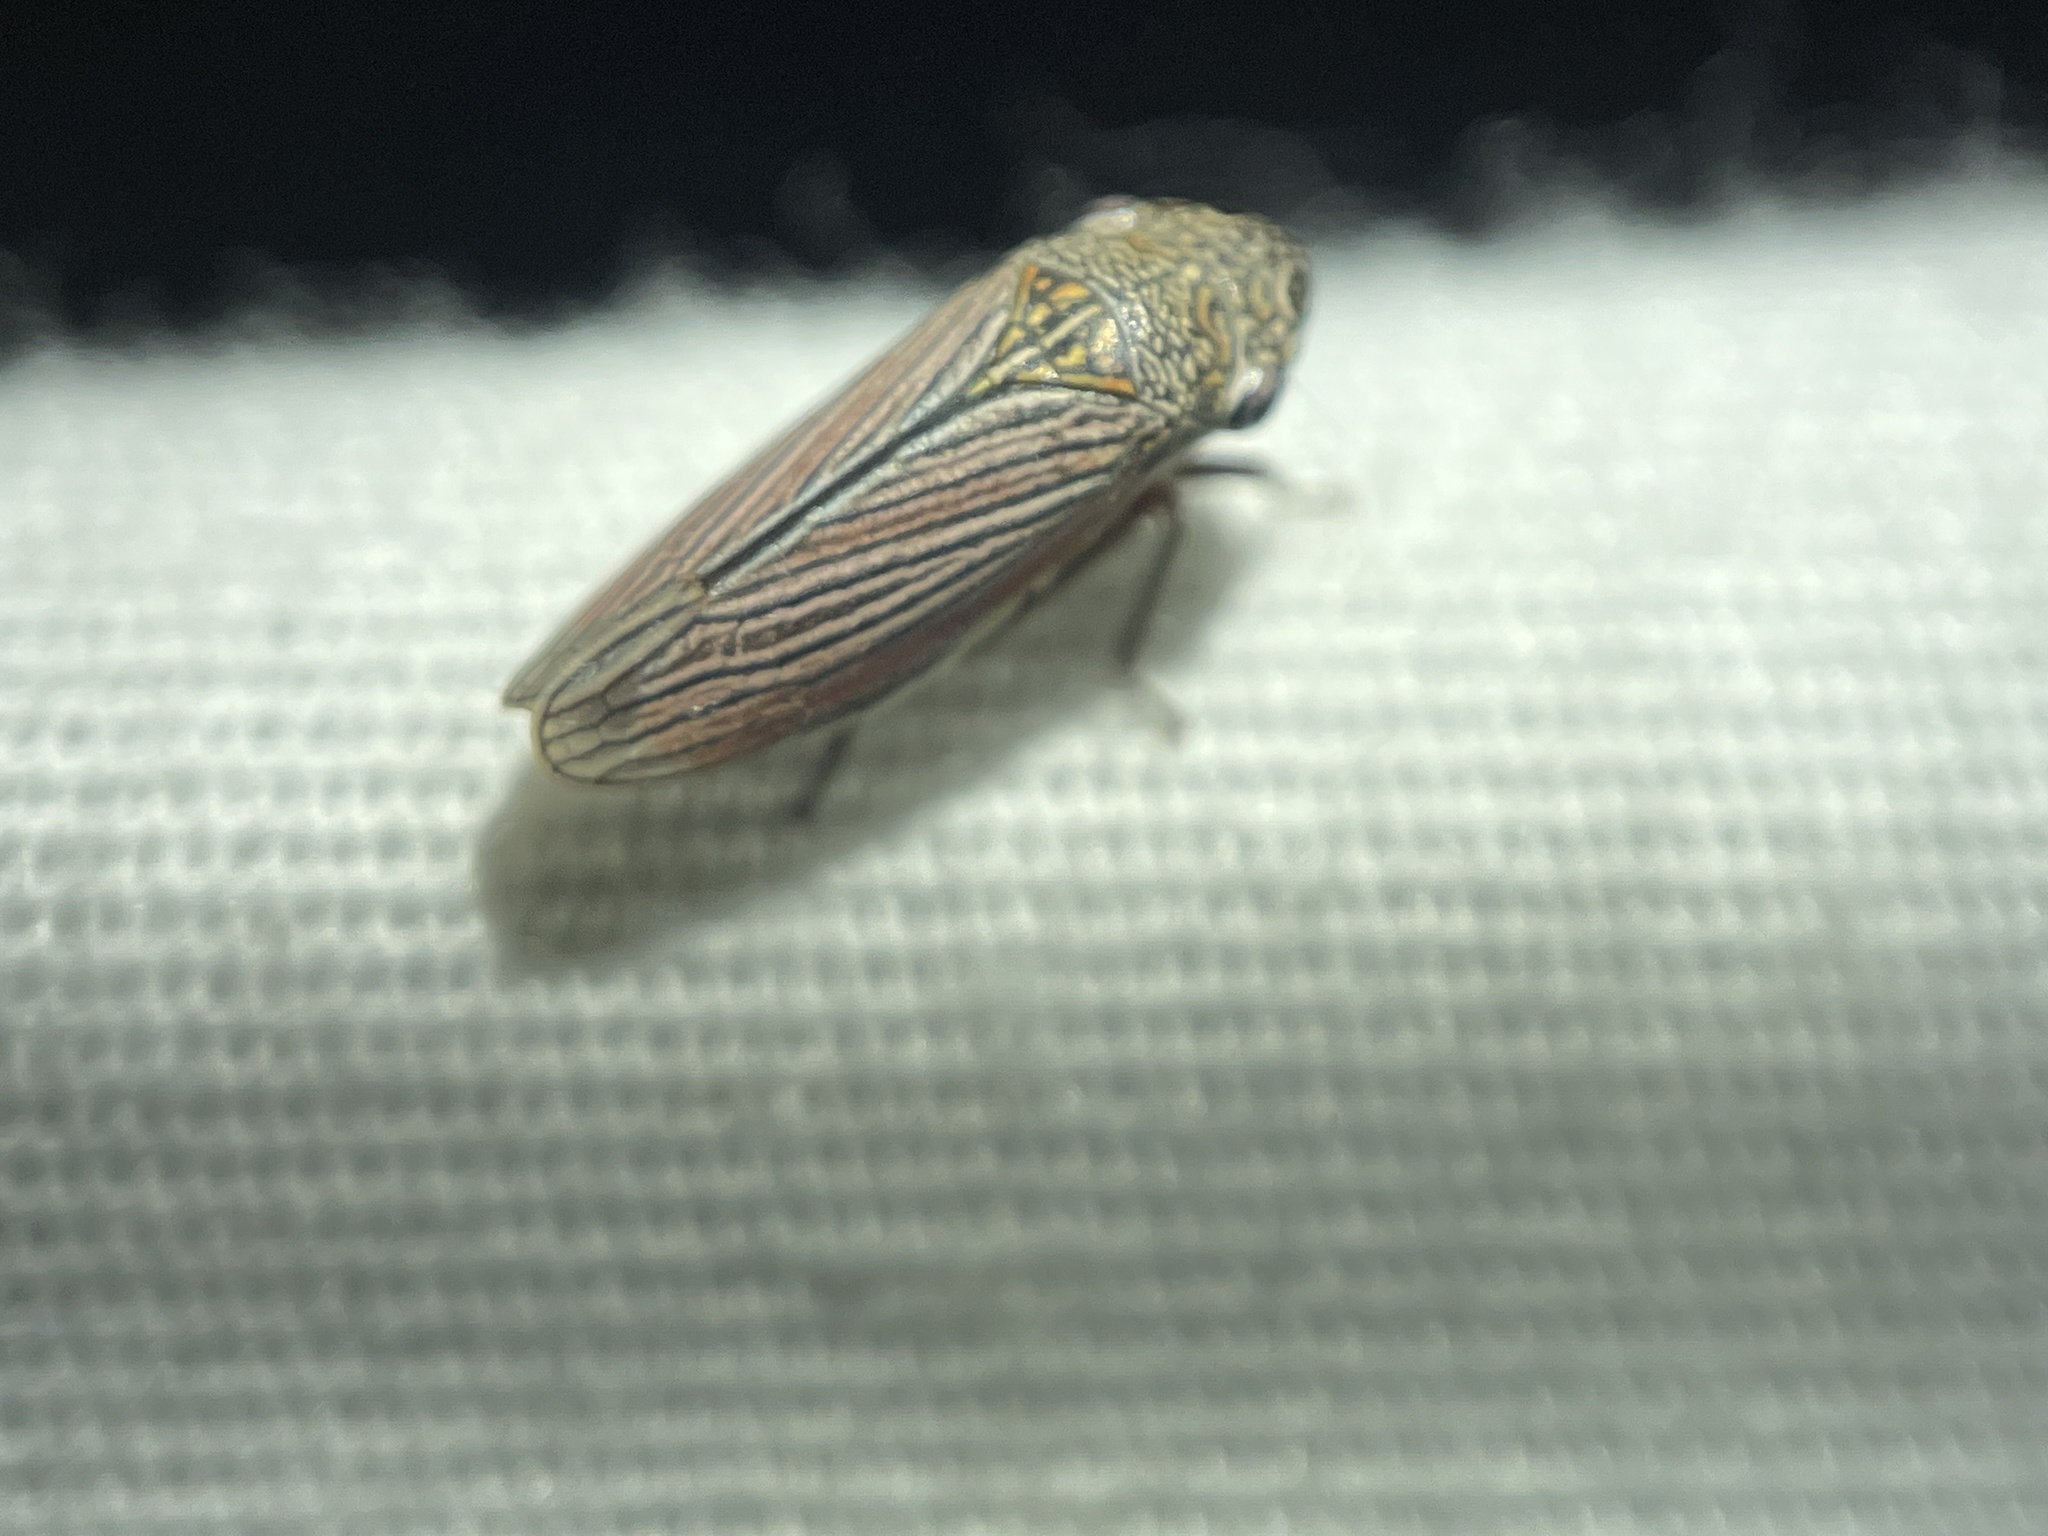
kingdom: Animalia
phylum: Arthropoda
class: Insecta
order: Hemiptera
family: Cicadellidae
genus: Cuerna
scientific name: Cuerna costalis
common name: Lateral-lined sharpshooter
